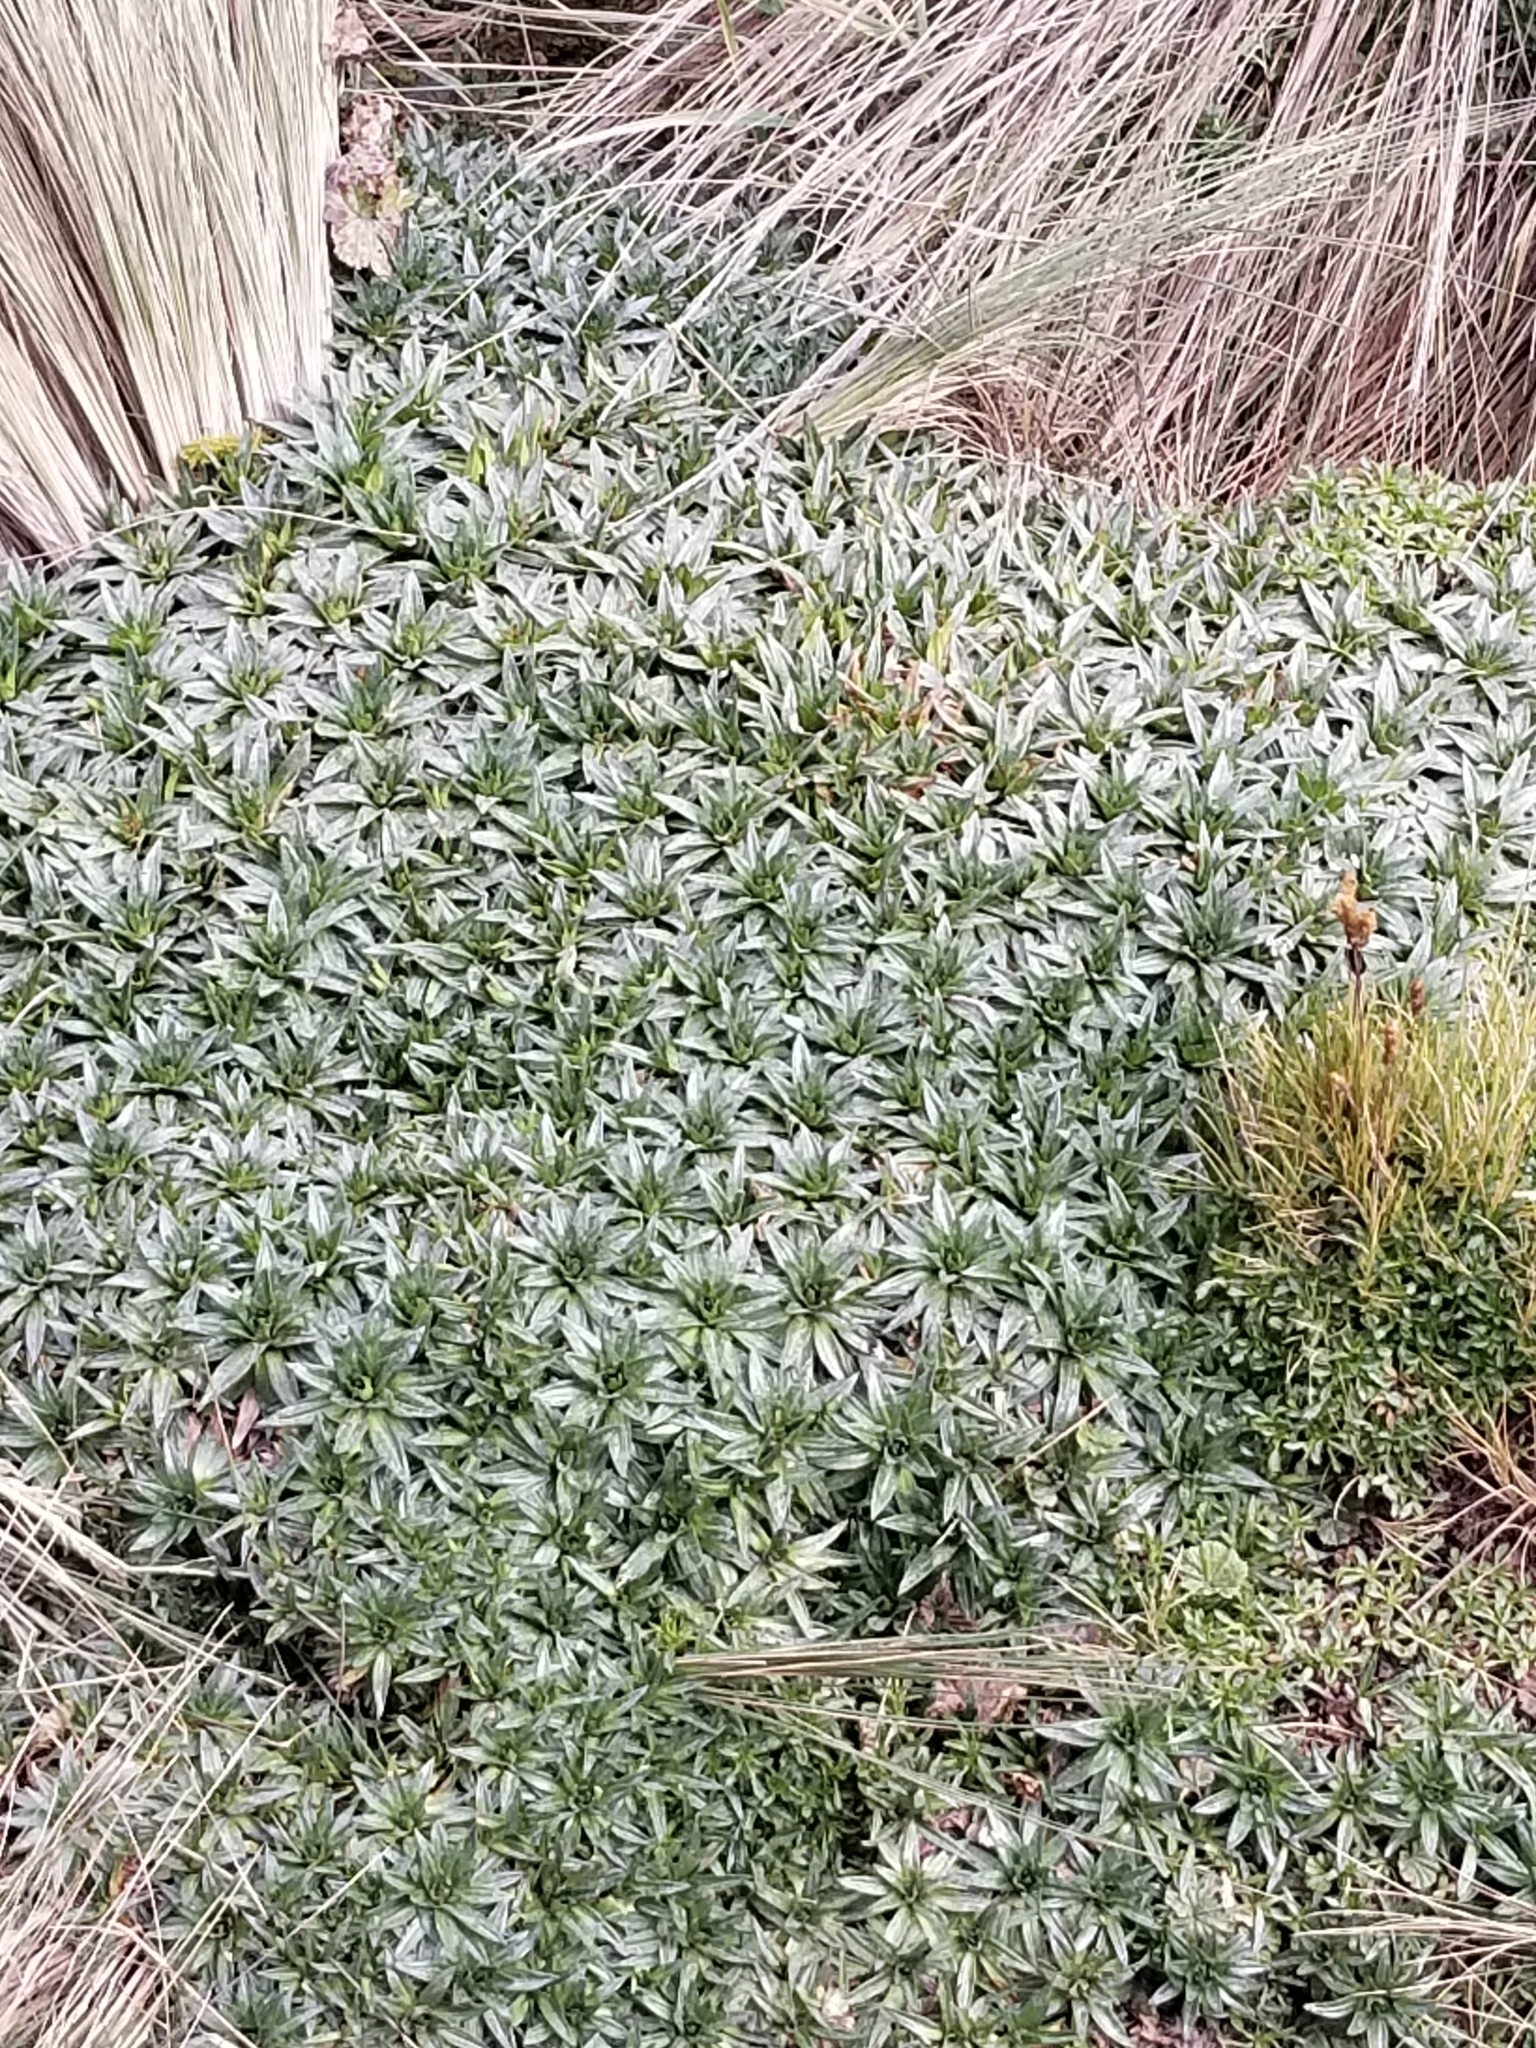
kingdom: Plantae
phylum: Tracheophyta
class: Magnoliopsida
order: Lamiales
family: Plantaginaceae
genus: Plantago
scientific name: Plantago rigida
